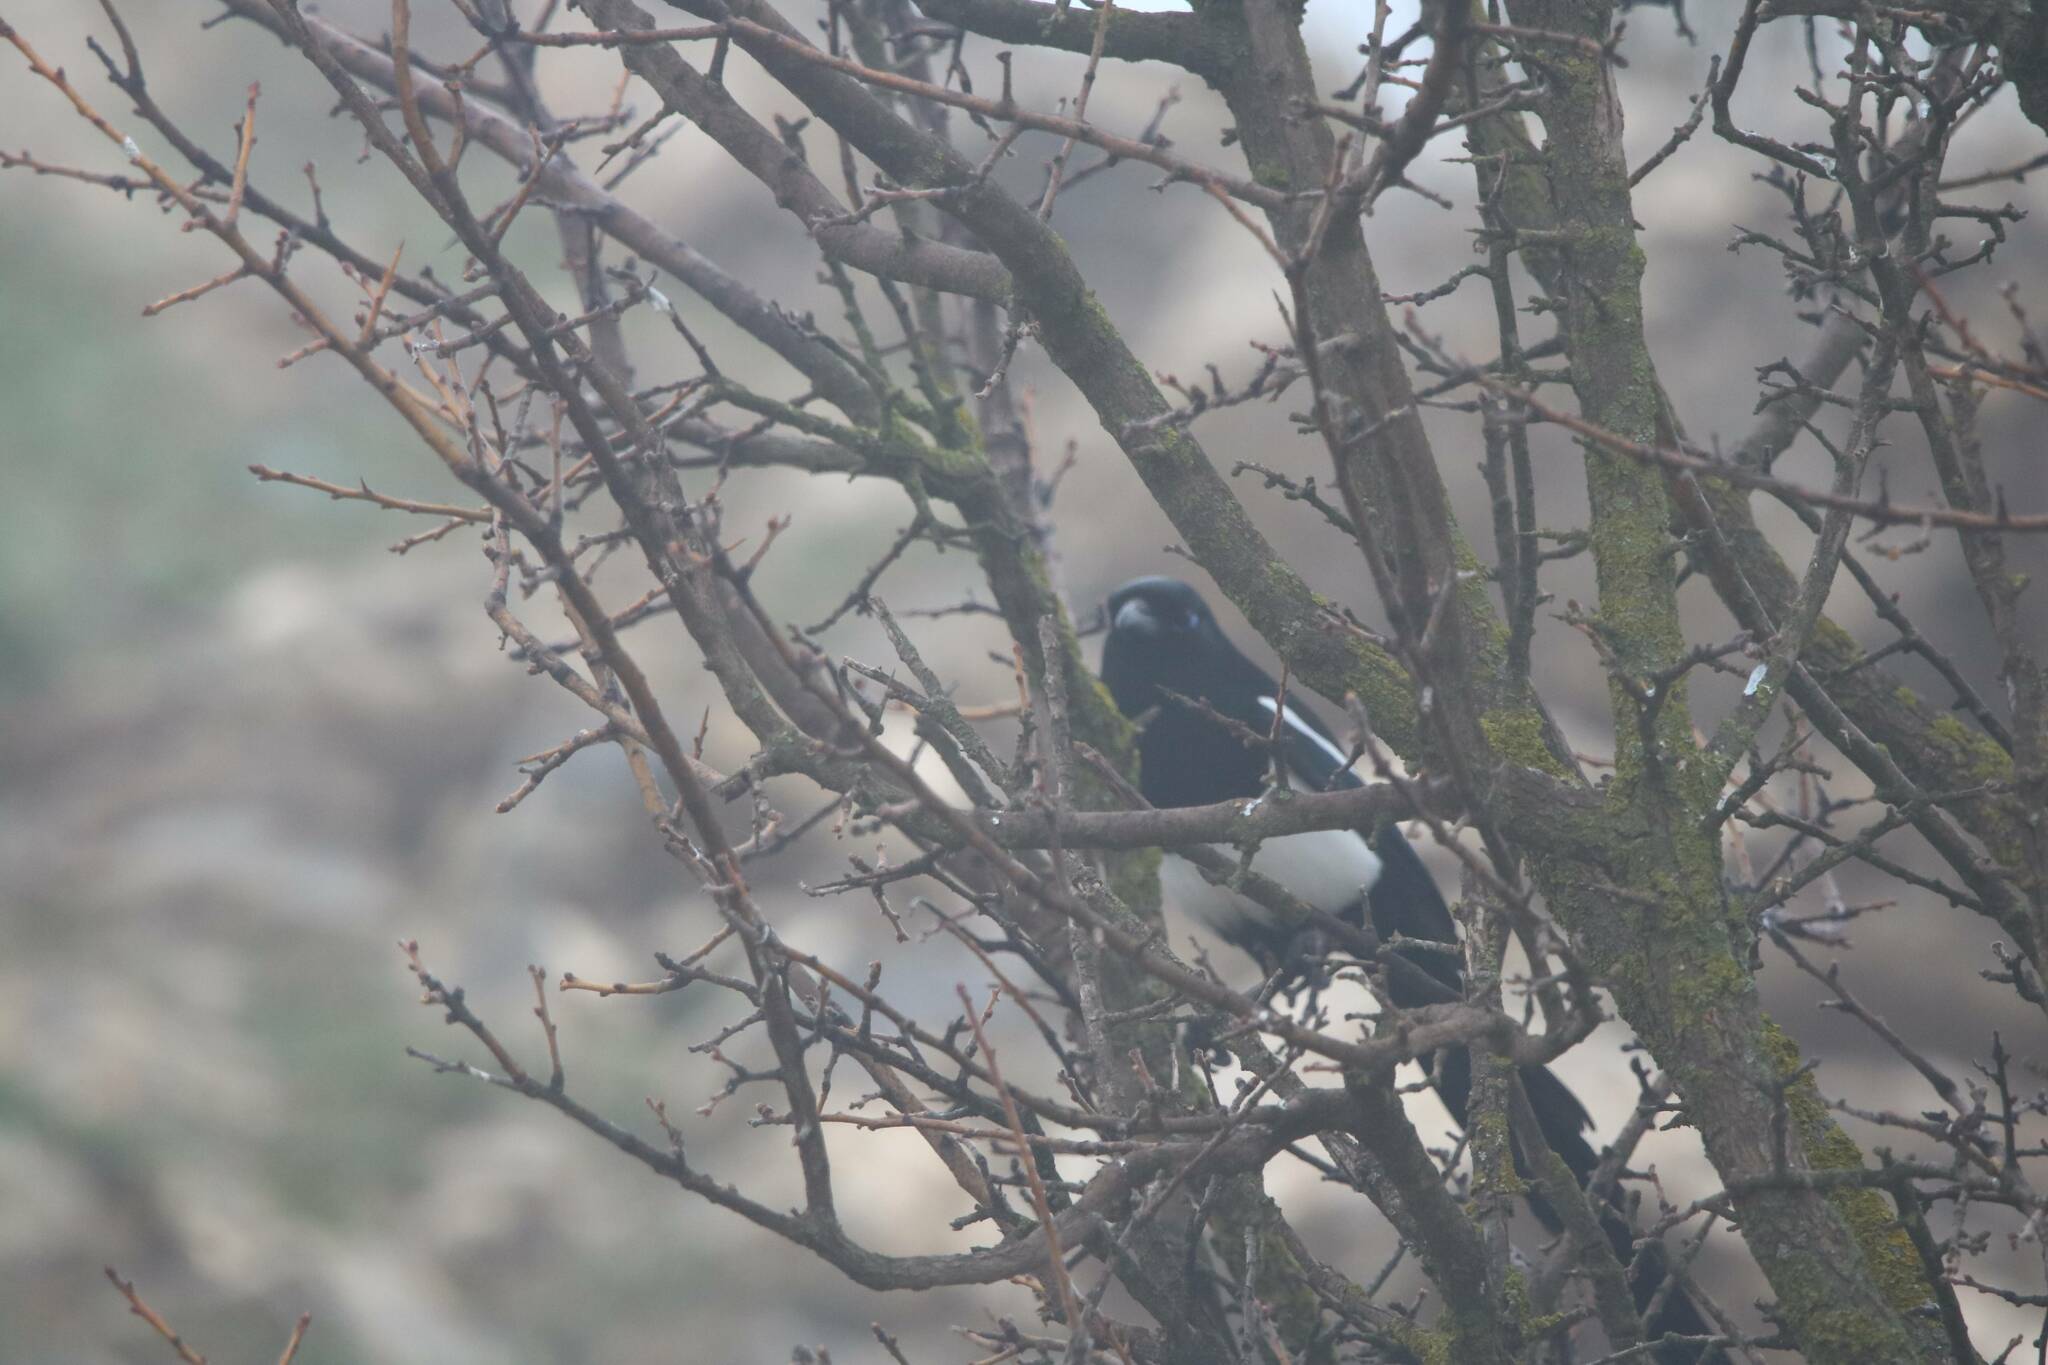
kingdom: Animalia
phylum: Chordata
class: Aves
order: Passeriformes
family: Corvidae
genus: Pica
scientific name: Pica mauritanica
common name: Maghreb magpie
